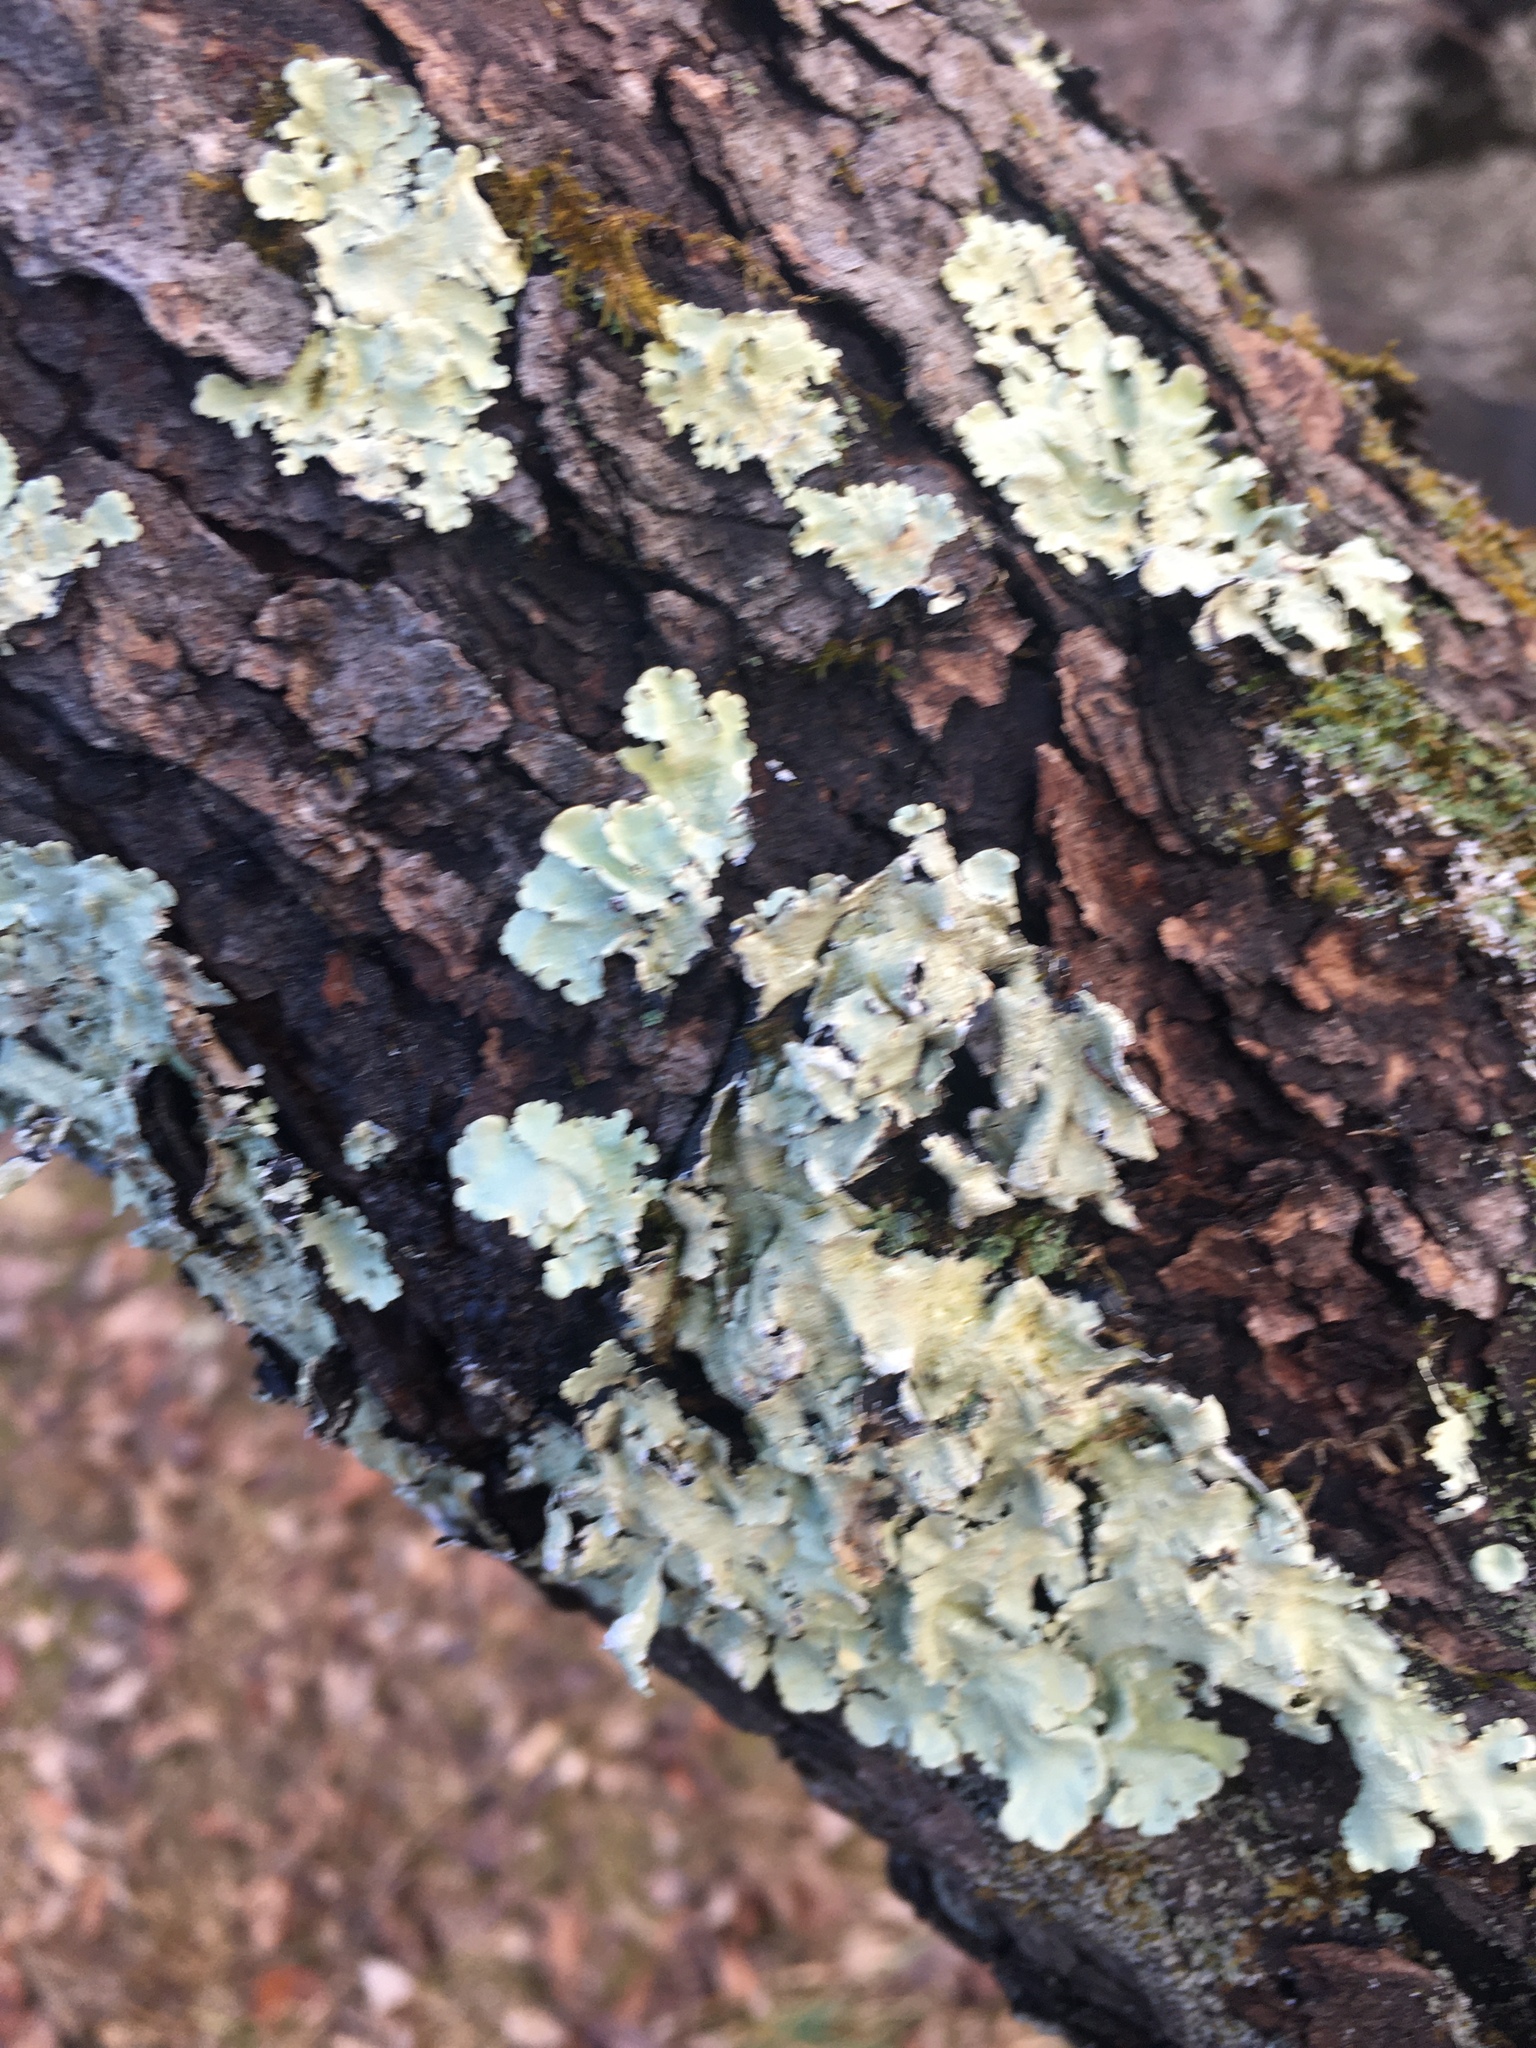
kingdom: Fungi
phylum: Ascomycota
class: Lecanoromycetes
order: Lecanorales
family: Parmeliaceae
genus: Flavoparmelia
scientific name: Flavoparmelia caperata
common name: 40-mile per hour lichen
